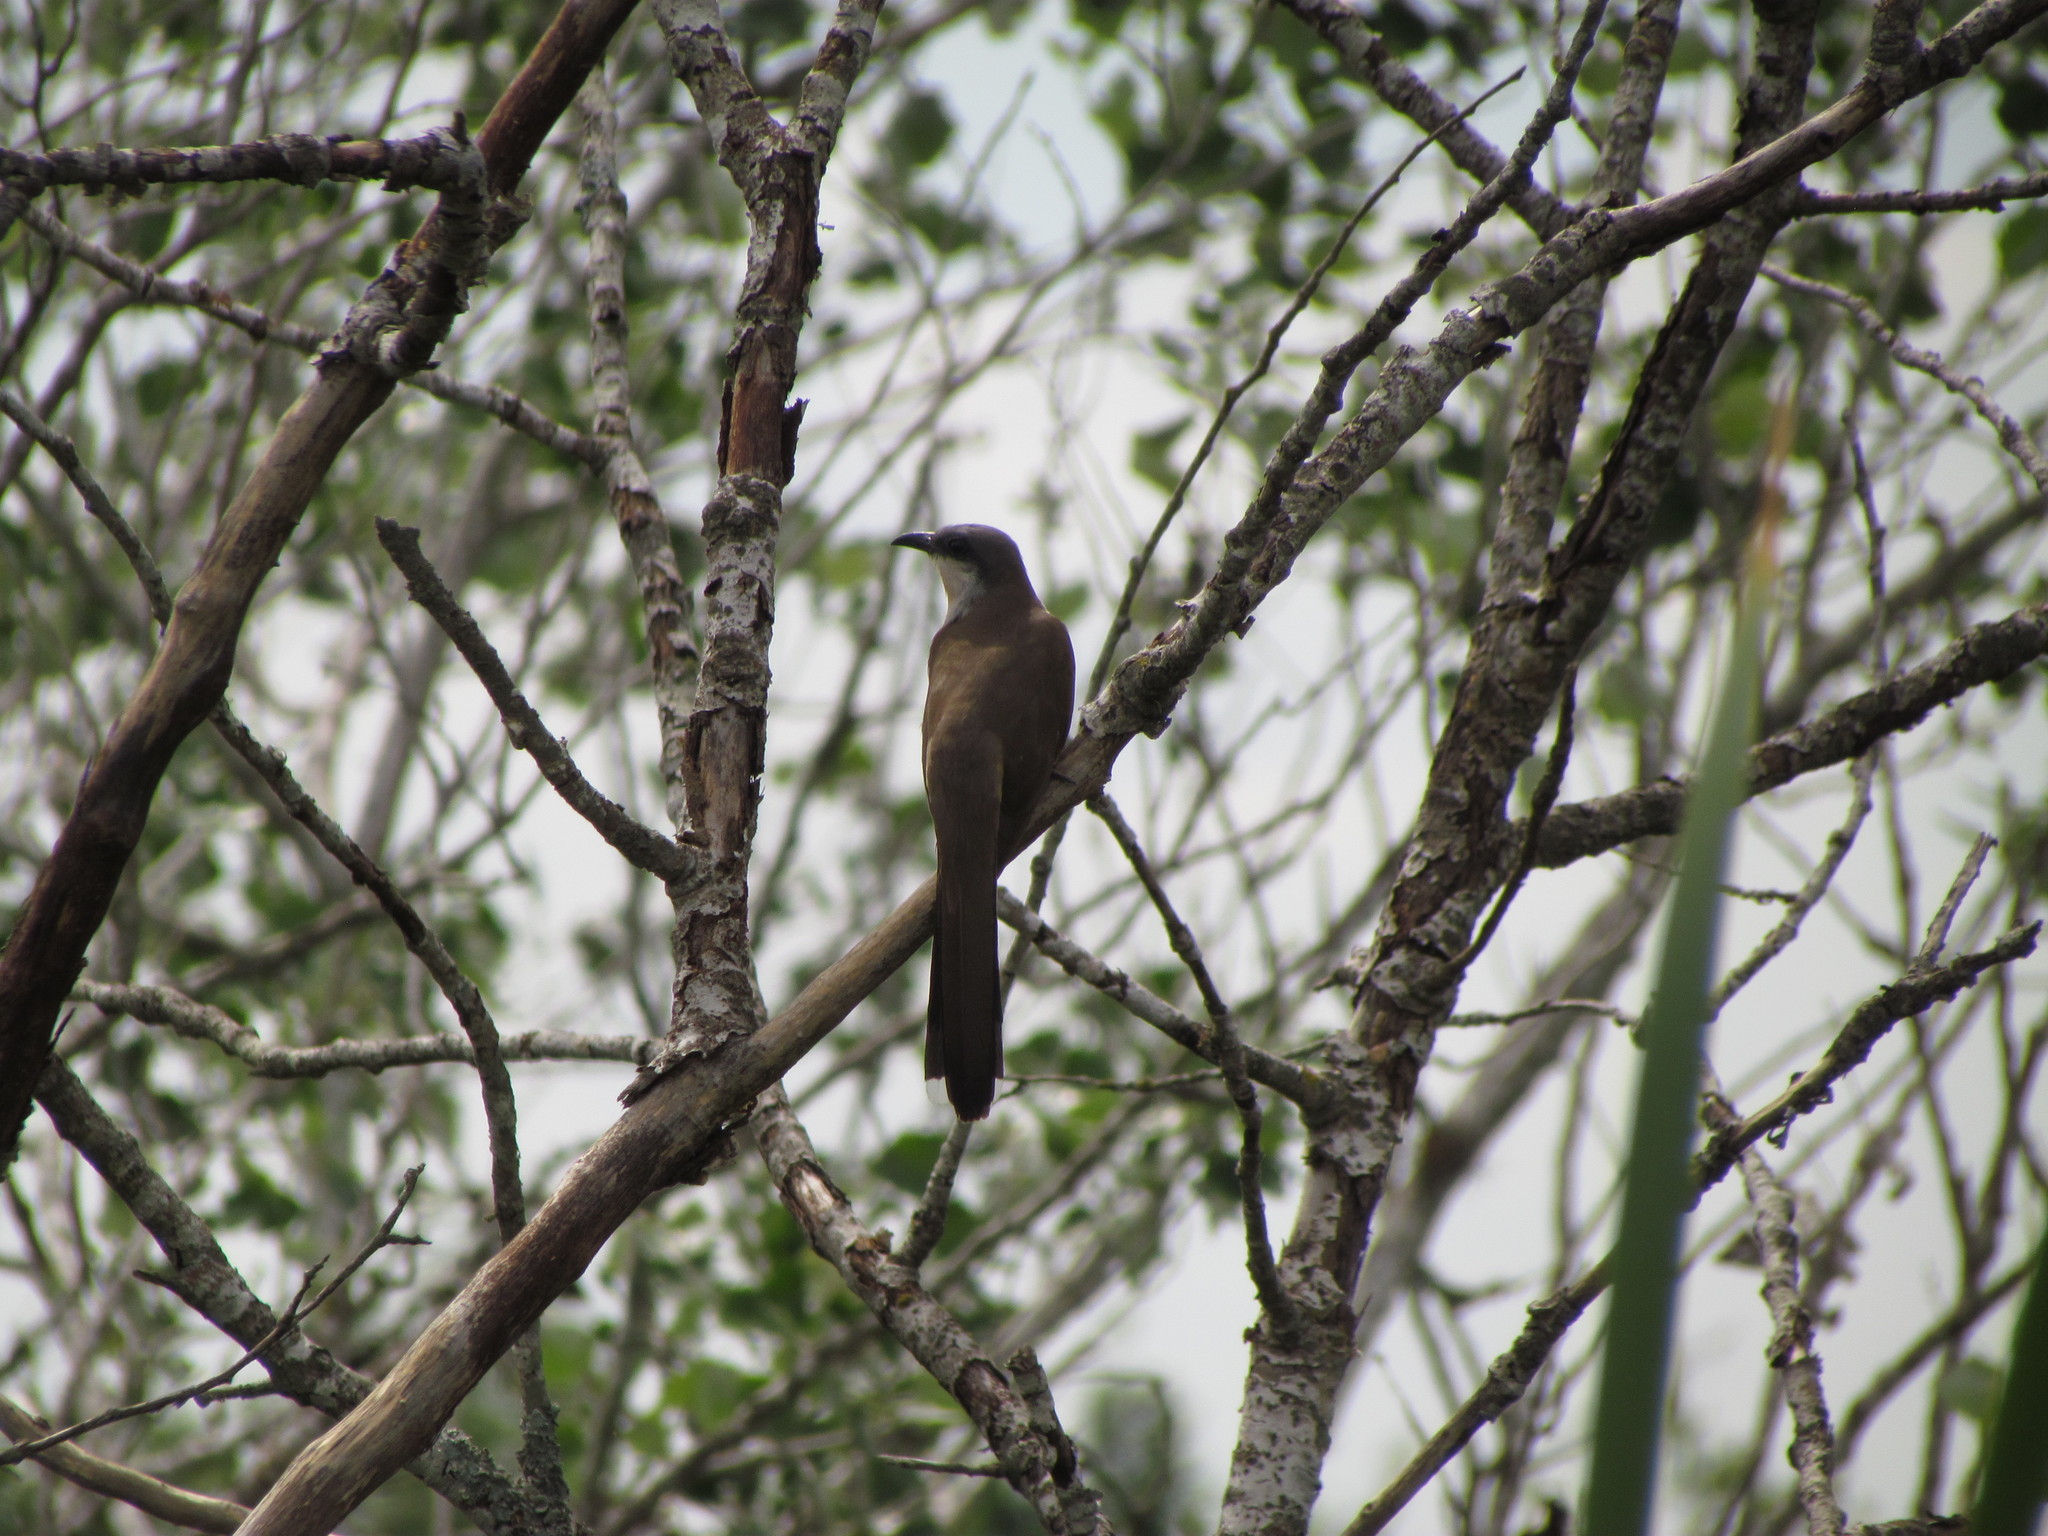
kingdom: Animalia
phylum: Chordata
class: Aves
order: Cuculiformes
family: Cuculidae
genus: Coccyzus
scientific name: Coccyzus melacoryphus
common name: Dark-billed cuckoo
